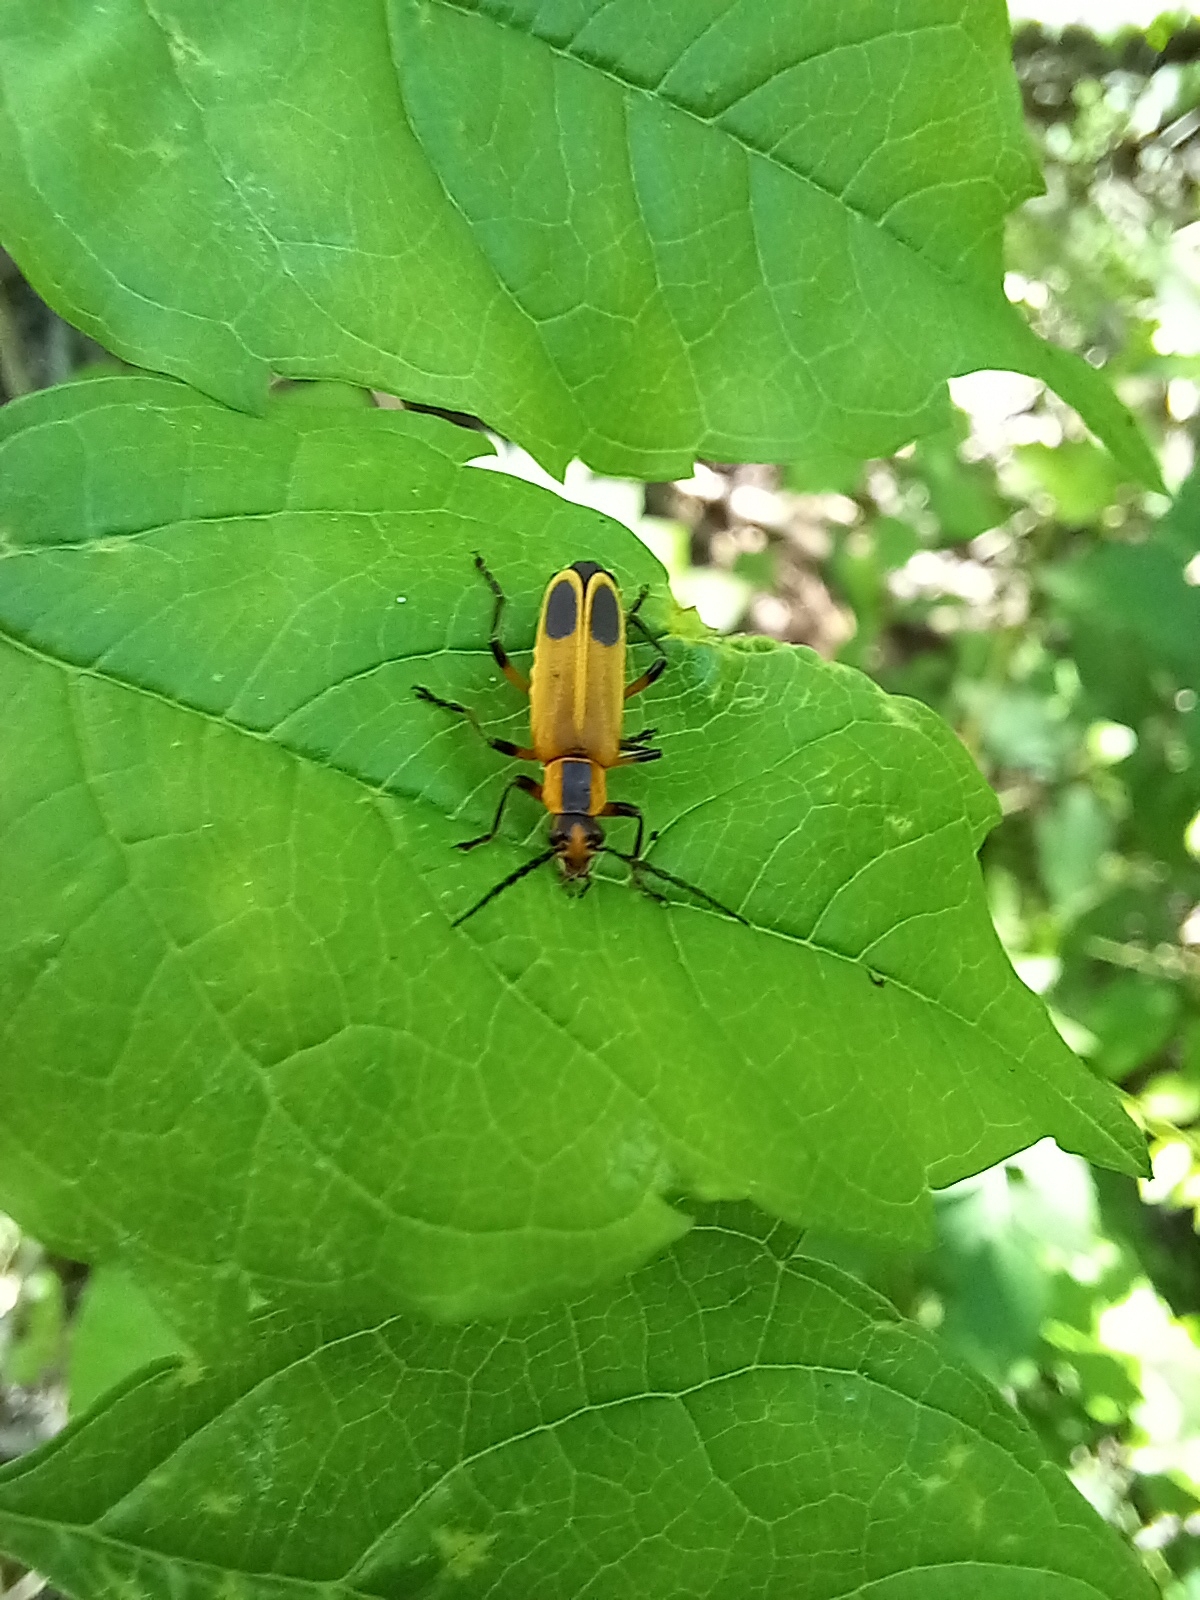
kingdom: Animalia
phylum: Arthropoda
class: Insecta
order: Coleoptera
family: Cantharidae
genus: Chauliognathus
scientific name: Chauliognathus marginatus
